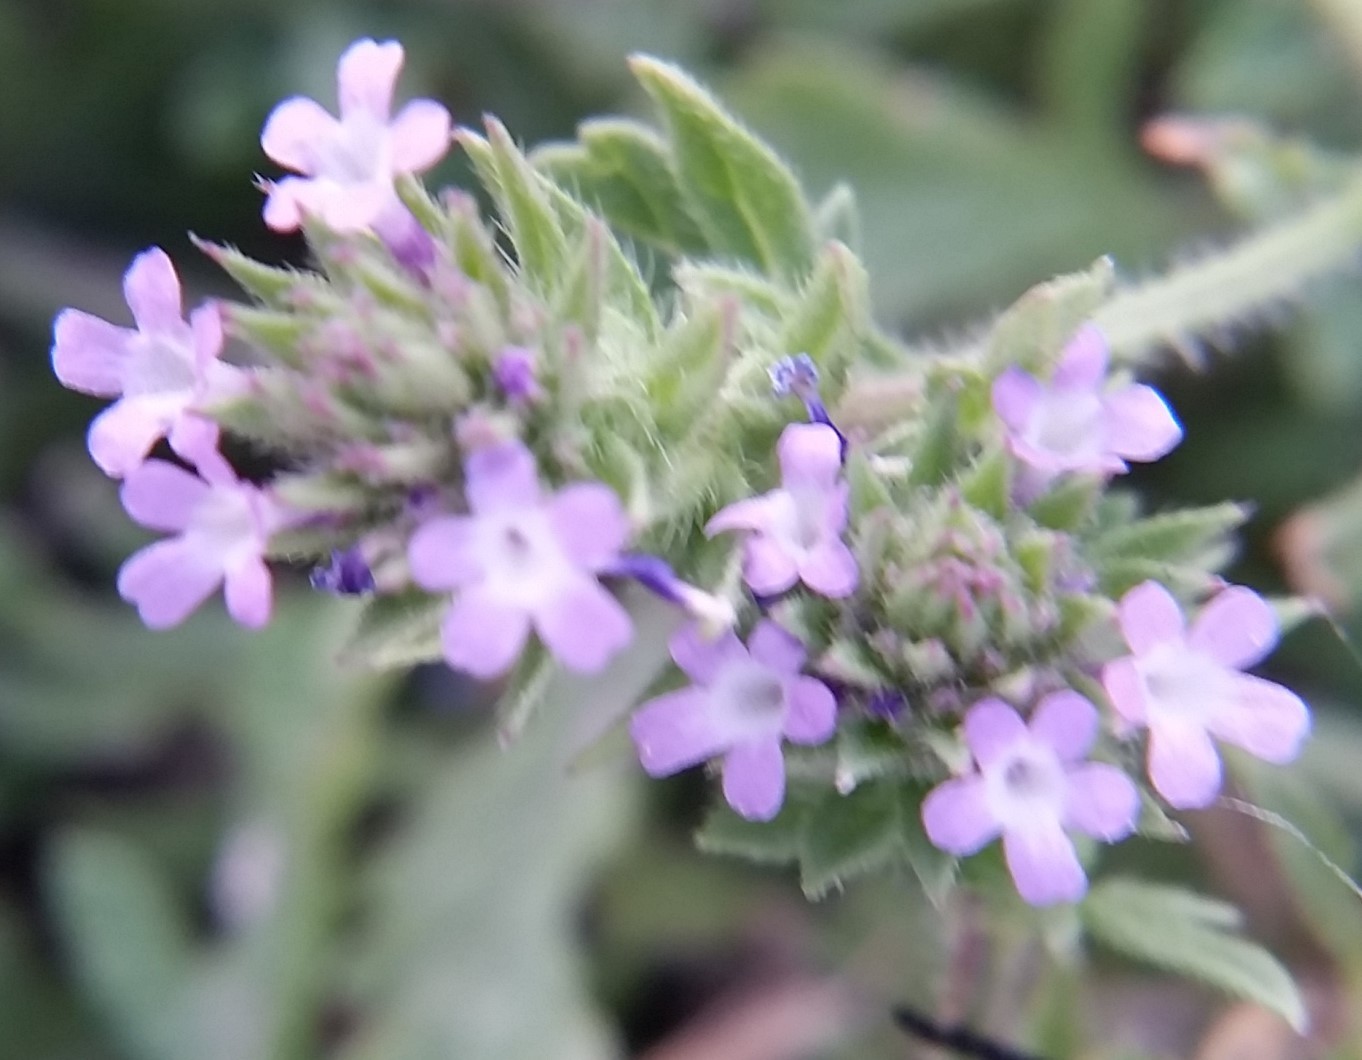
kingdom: Plantae
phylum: Tracheophyta
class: Magnoliopsida
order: Lamiales
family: Verbenaceae
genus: Verbena
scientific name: Verbena bracteata
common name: Bracted vervain
